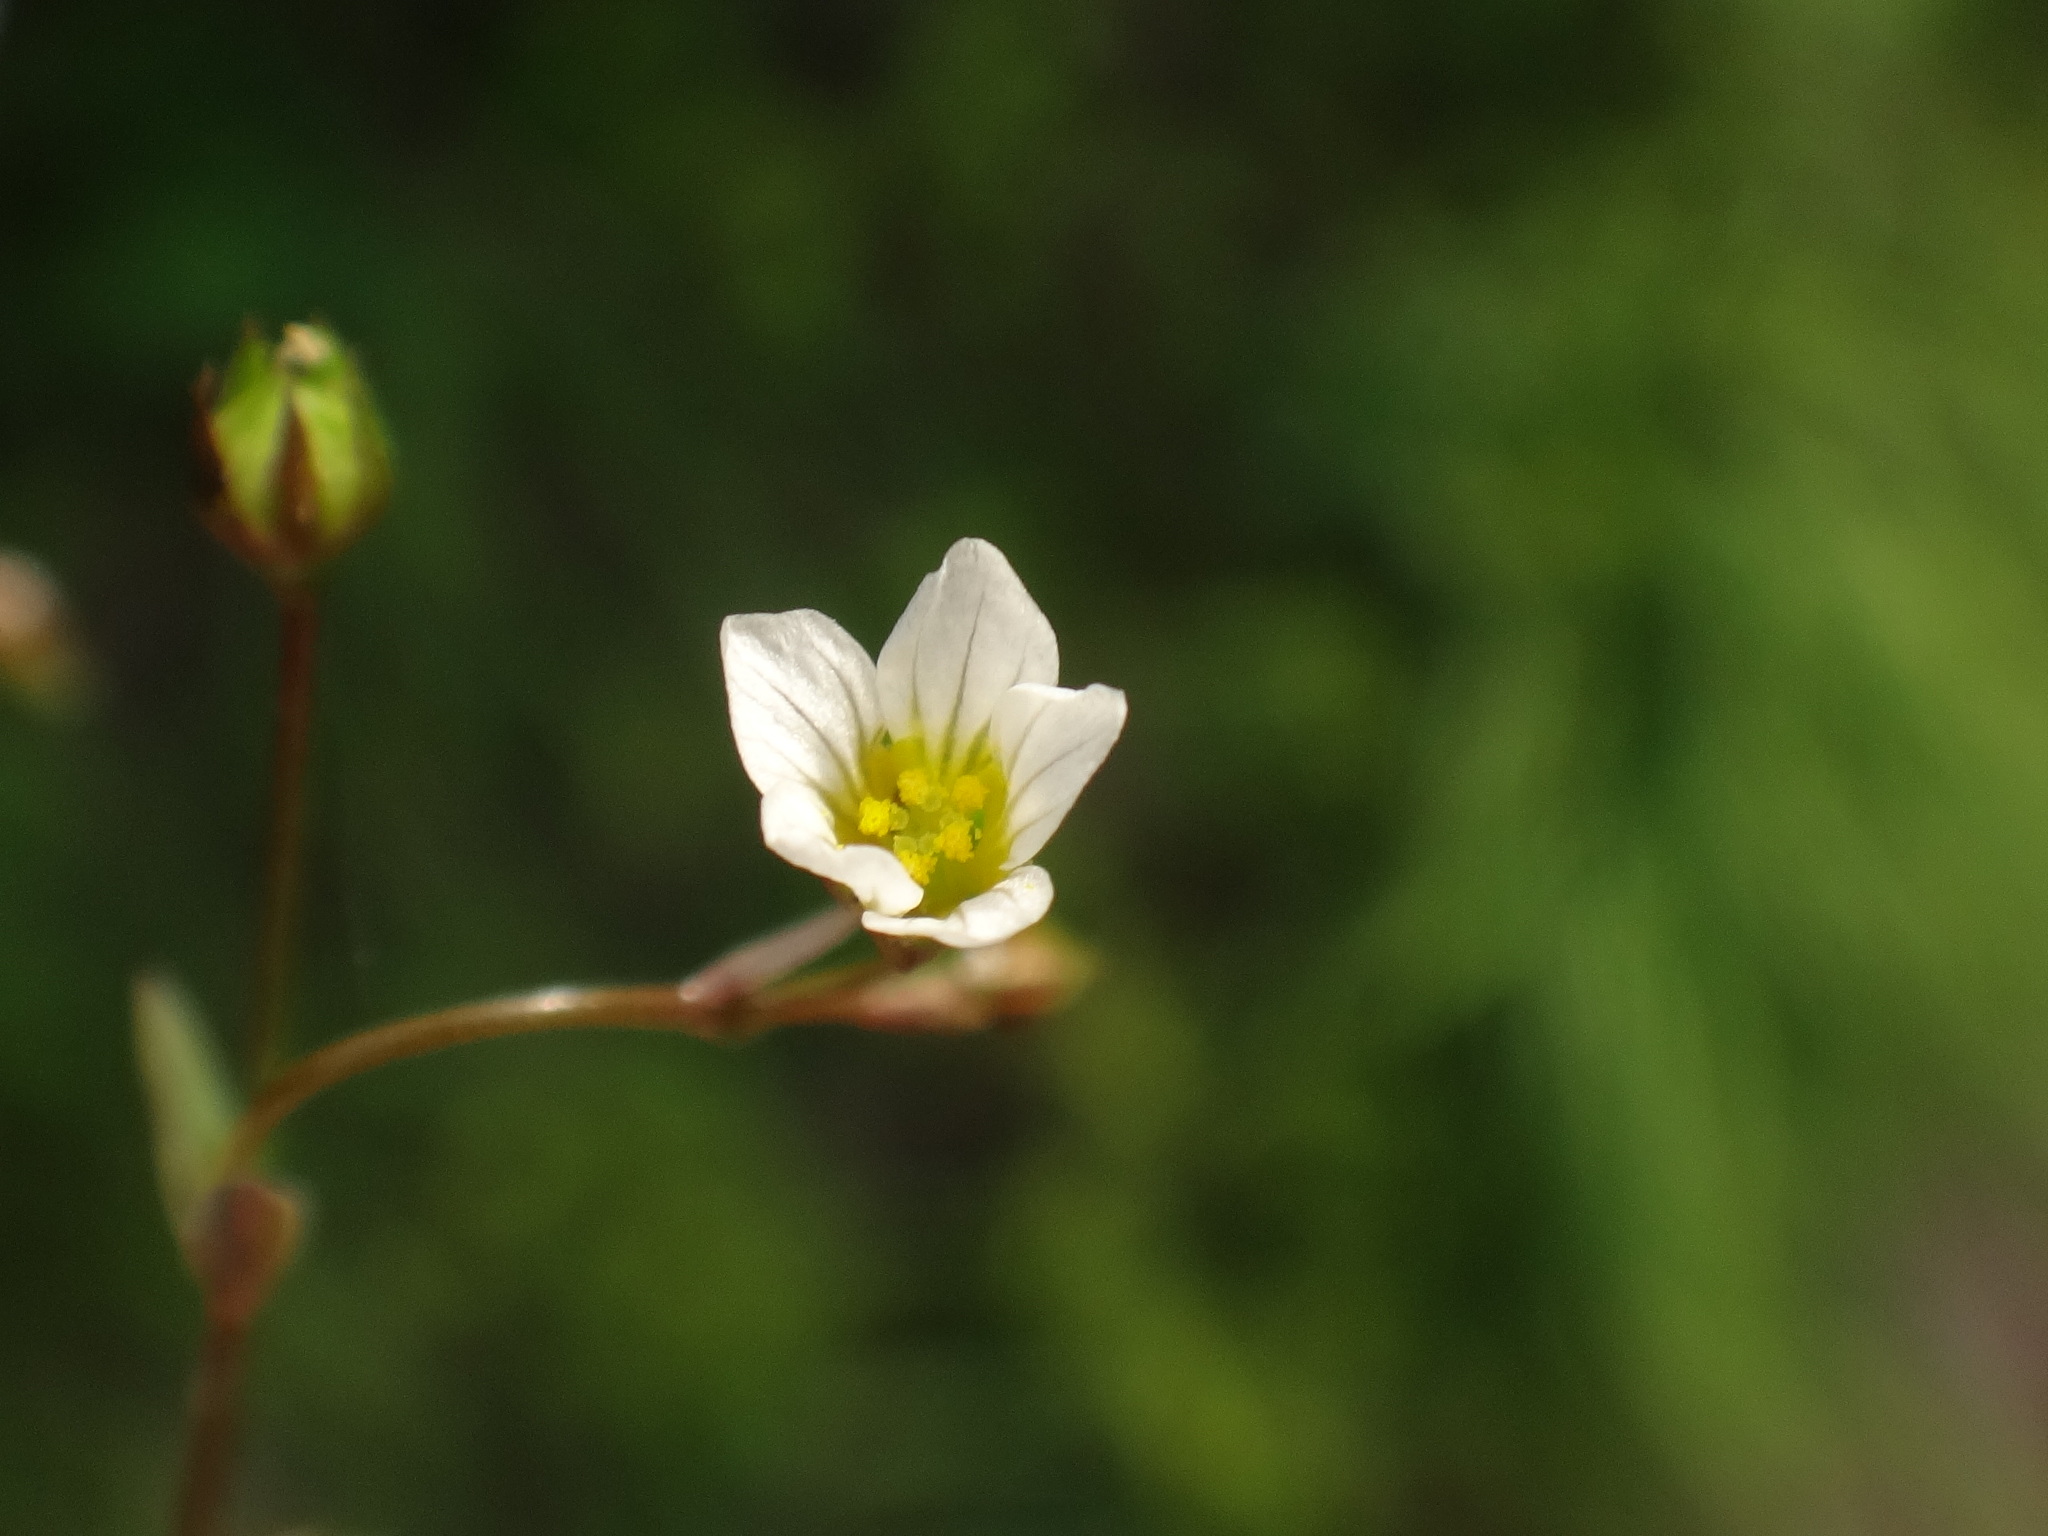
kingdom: Plantae
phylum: Tracheophyta
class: Magnoliopsida
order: Malpighiales
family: Linaceae
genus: Linum
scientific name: Linum catharticum
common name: Fairy flax
